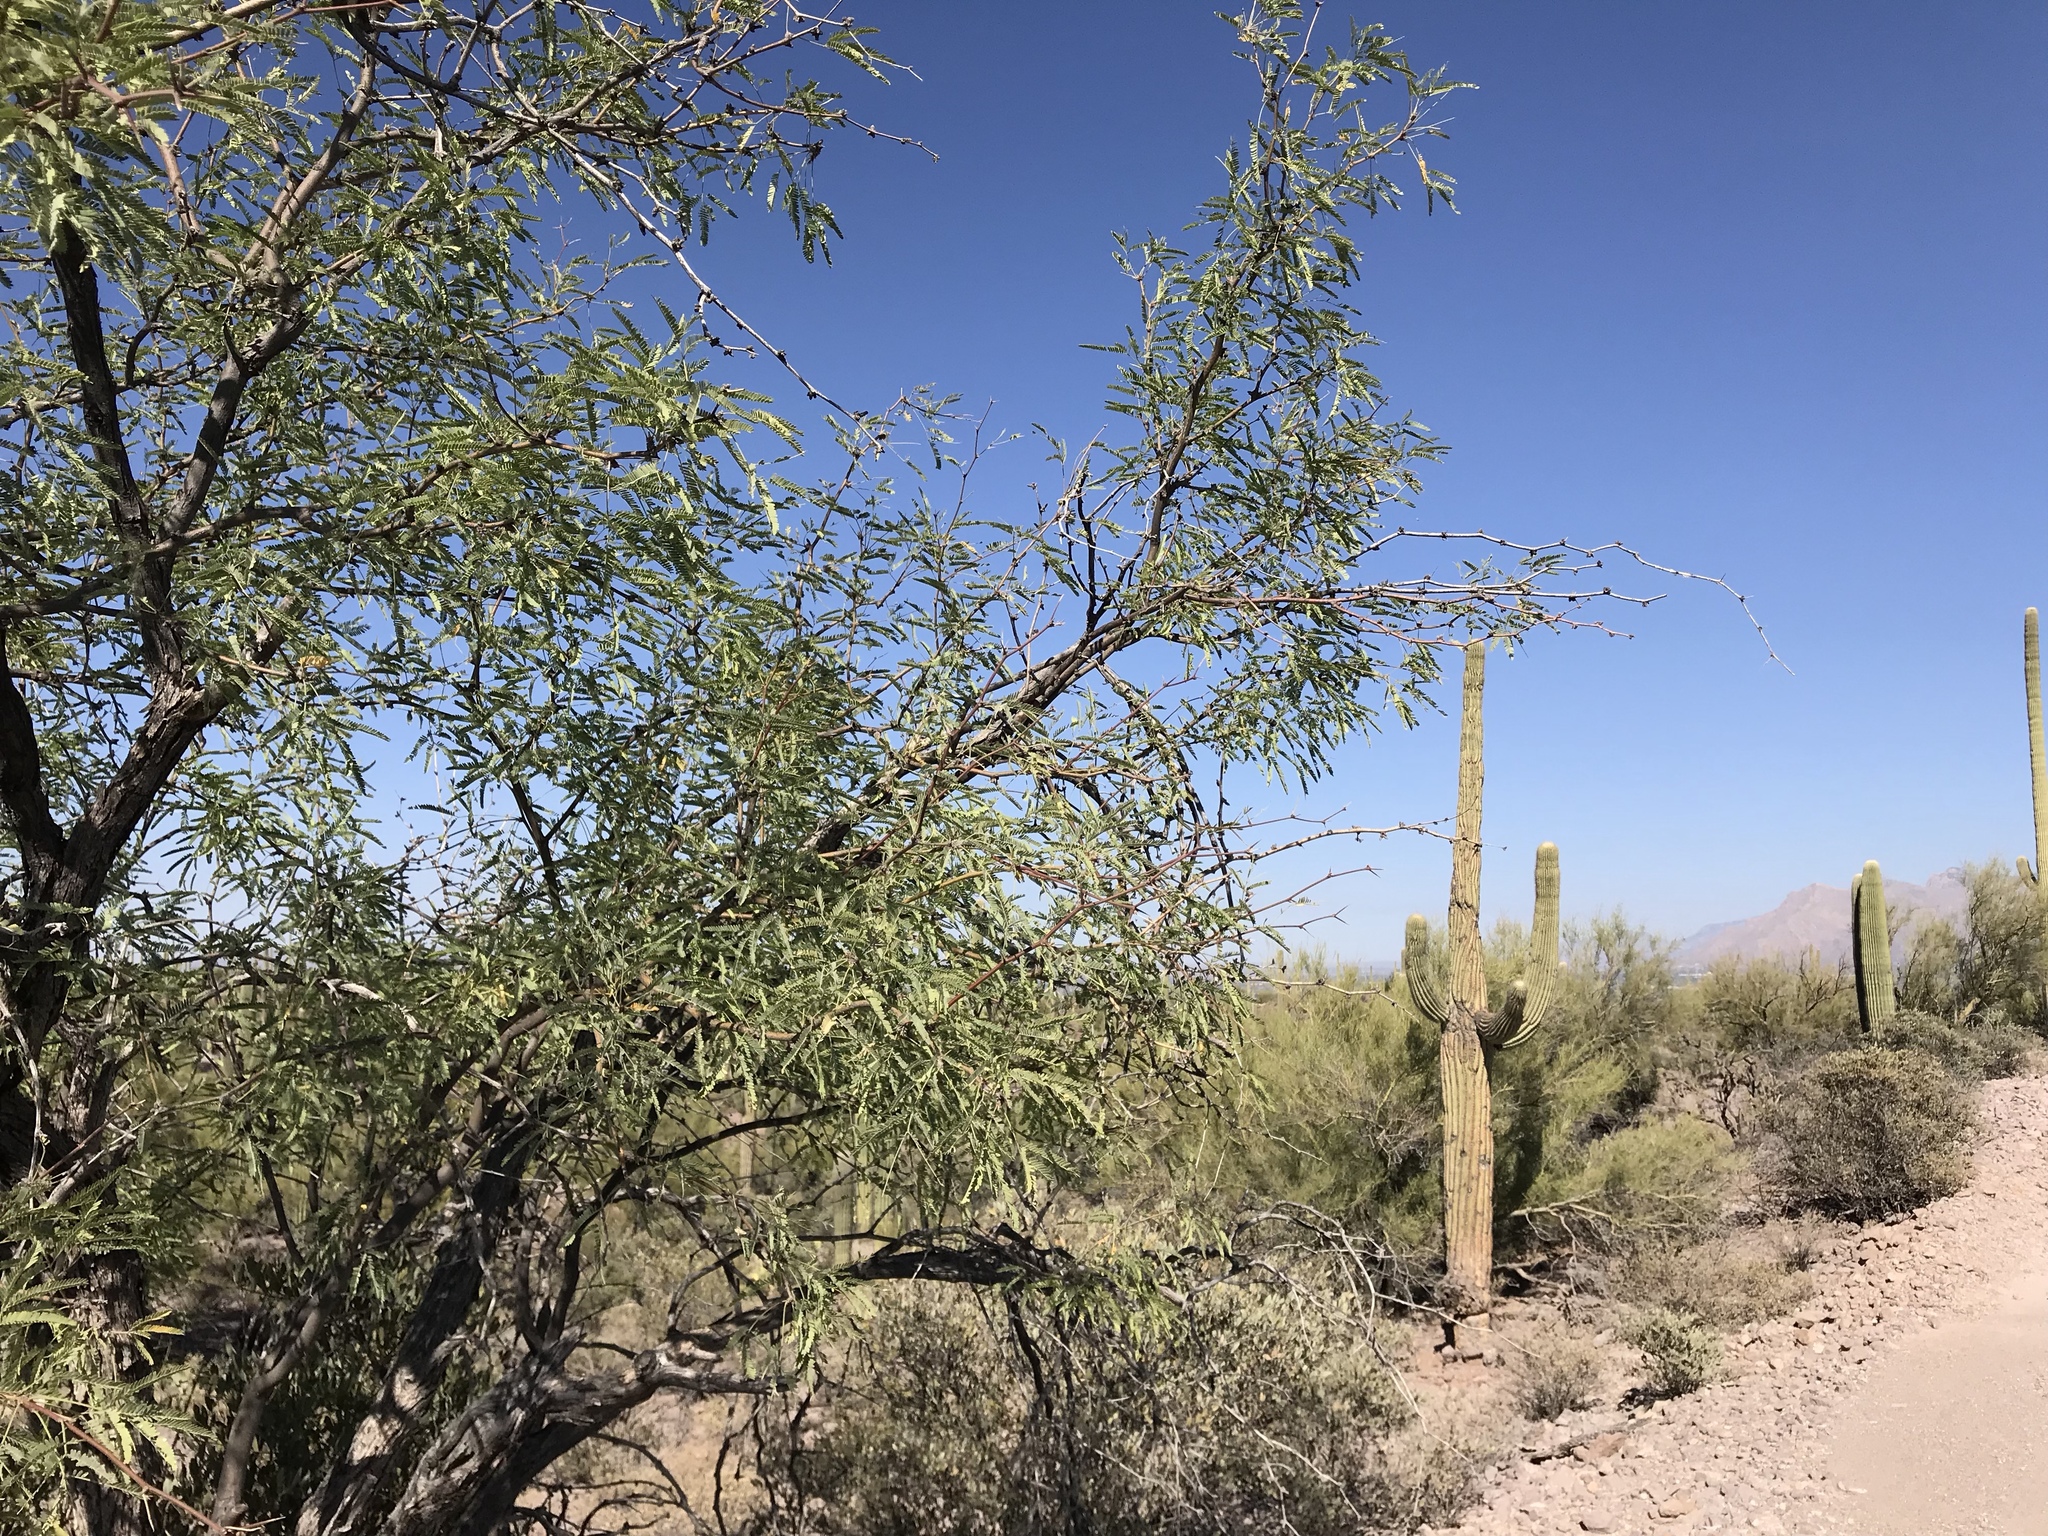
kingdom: Plantae
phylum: Tracheophyta
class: Magnoliopsida
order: Fabales
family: Fabaceae
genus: Prosopis
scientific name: Prosopis velutina
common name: Velvet mesquite
